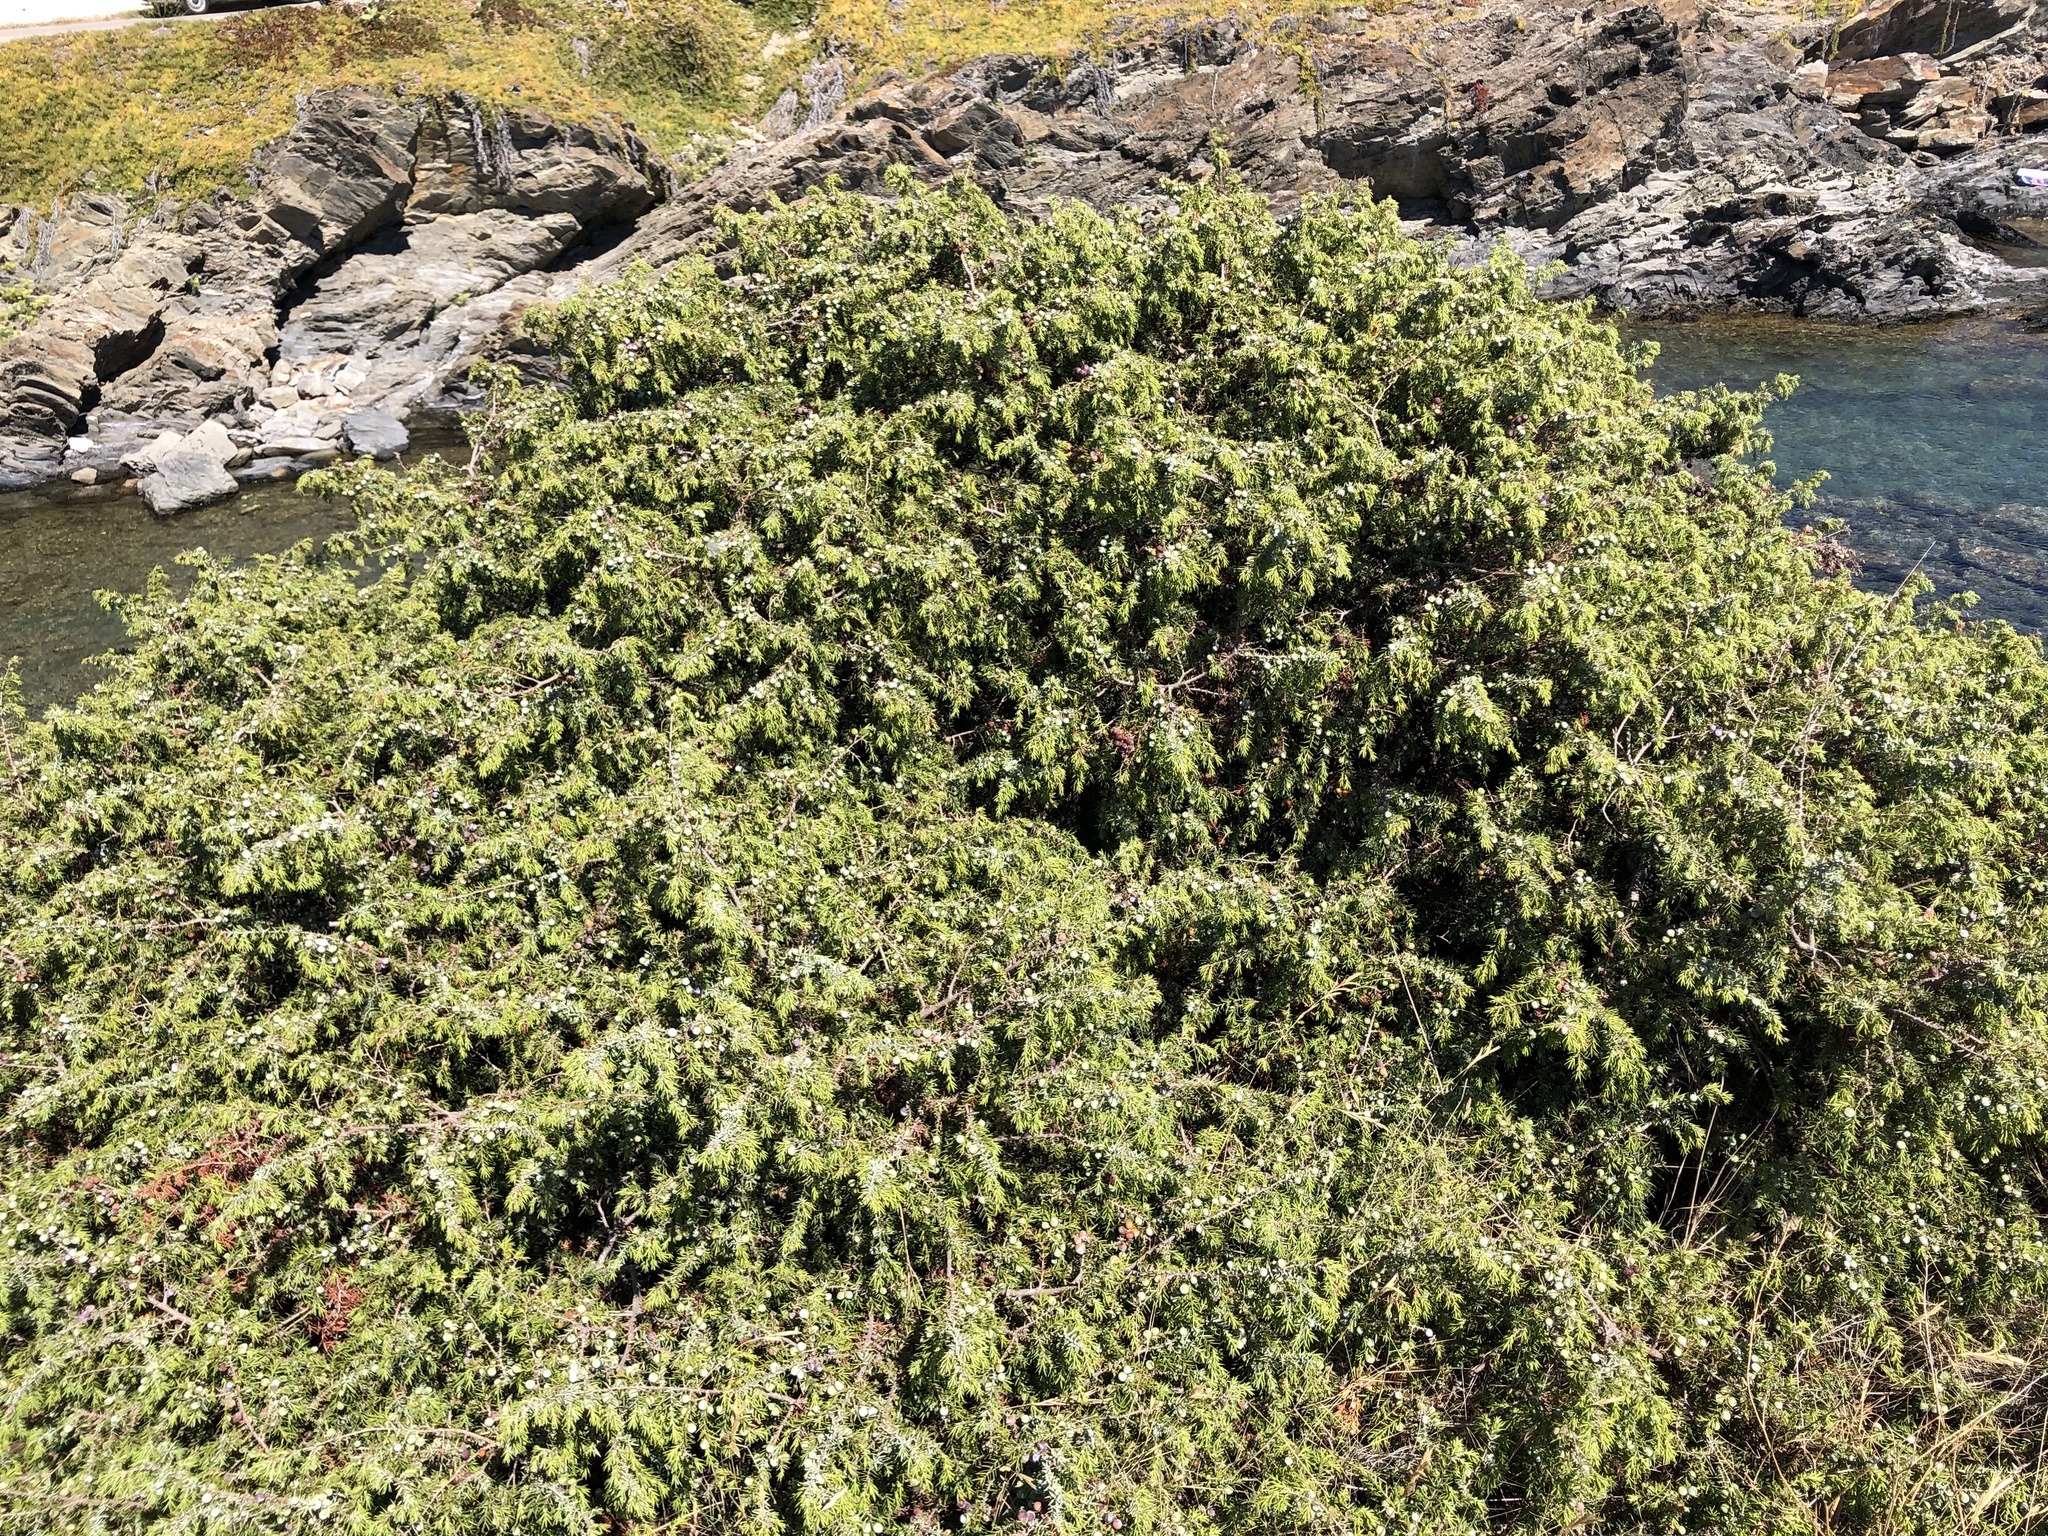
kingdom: Plantae
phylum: Tracheophyta
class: Pinopsida
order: Pinales
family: Cupressaceae
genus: Juniperus
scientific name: Juniperus oxycedrus
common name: Prickly juniper
